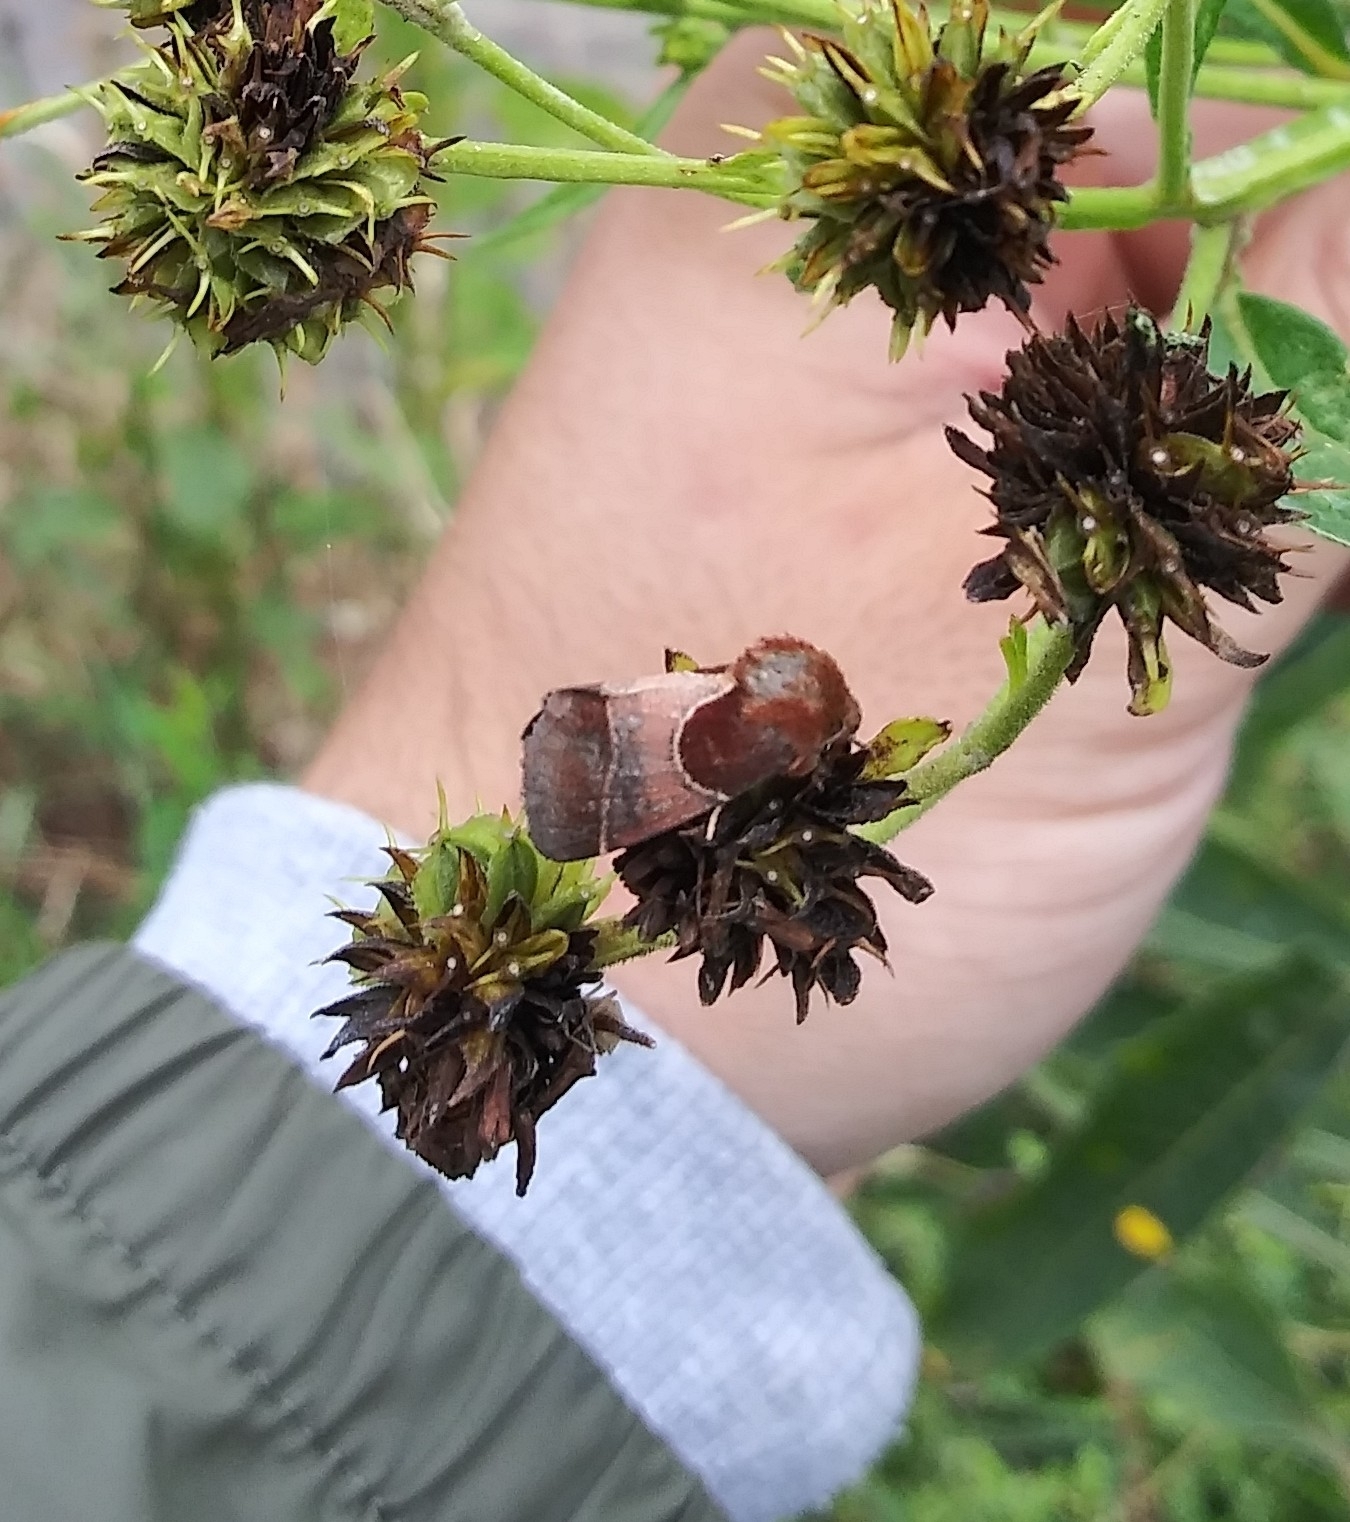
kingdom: Animalia
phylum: Arthropoda
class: Insecta
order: Lepidoptera
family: Noctuidae
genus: Schinia
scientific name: Schinia arcigera
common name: Arcigera flower moth
